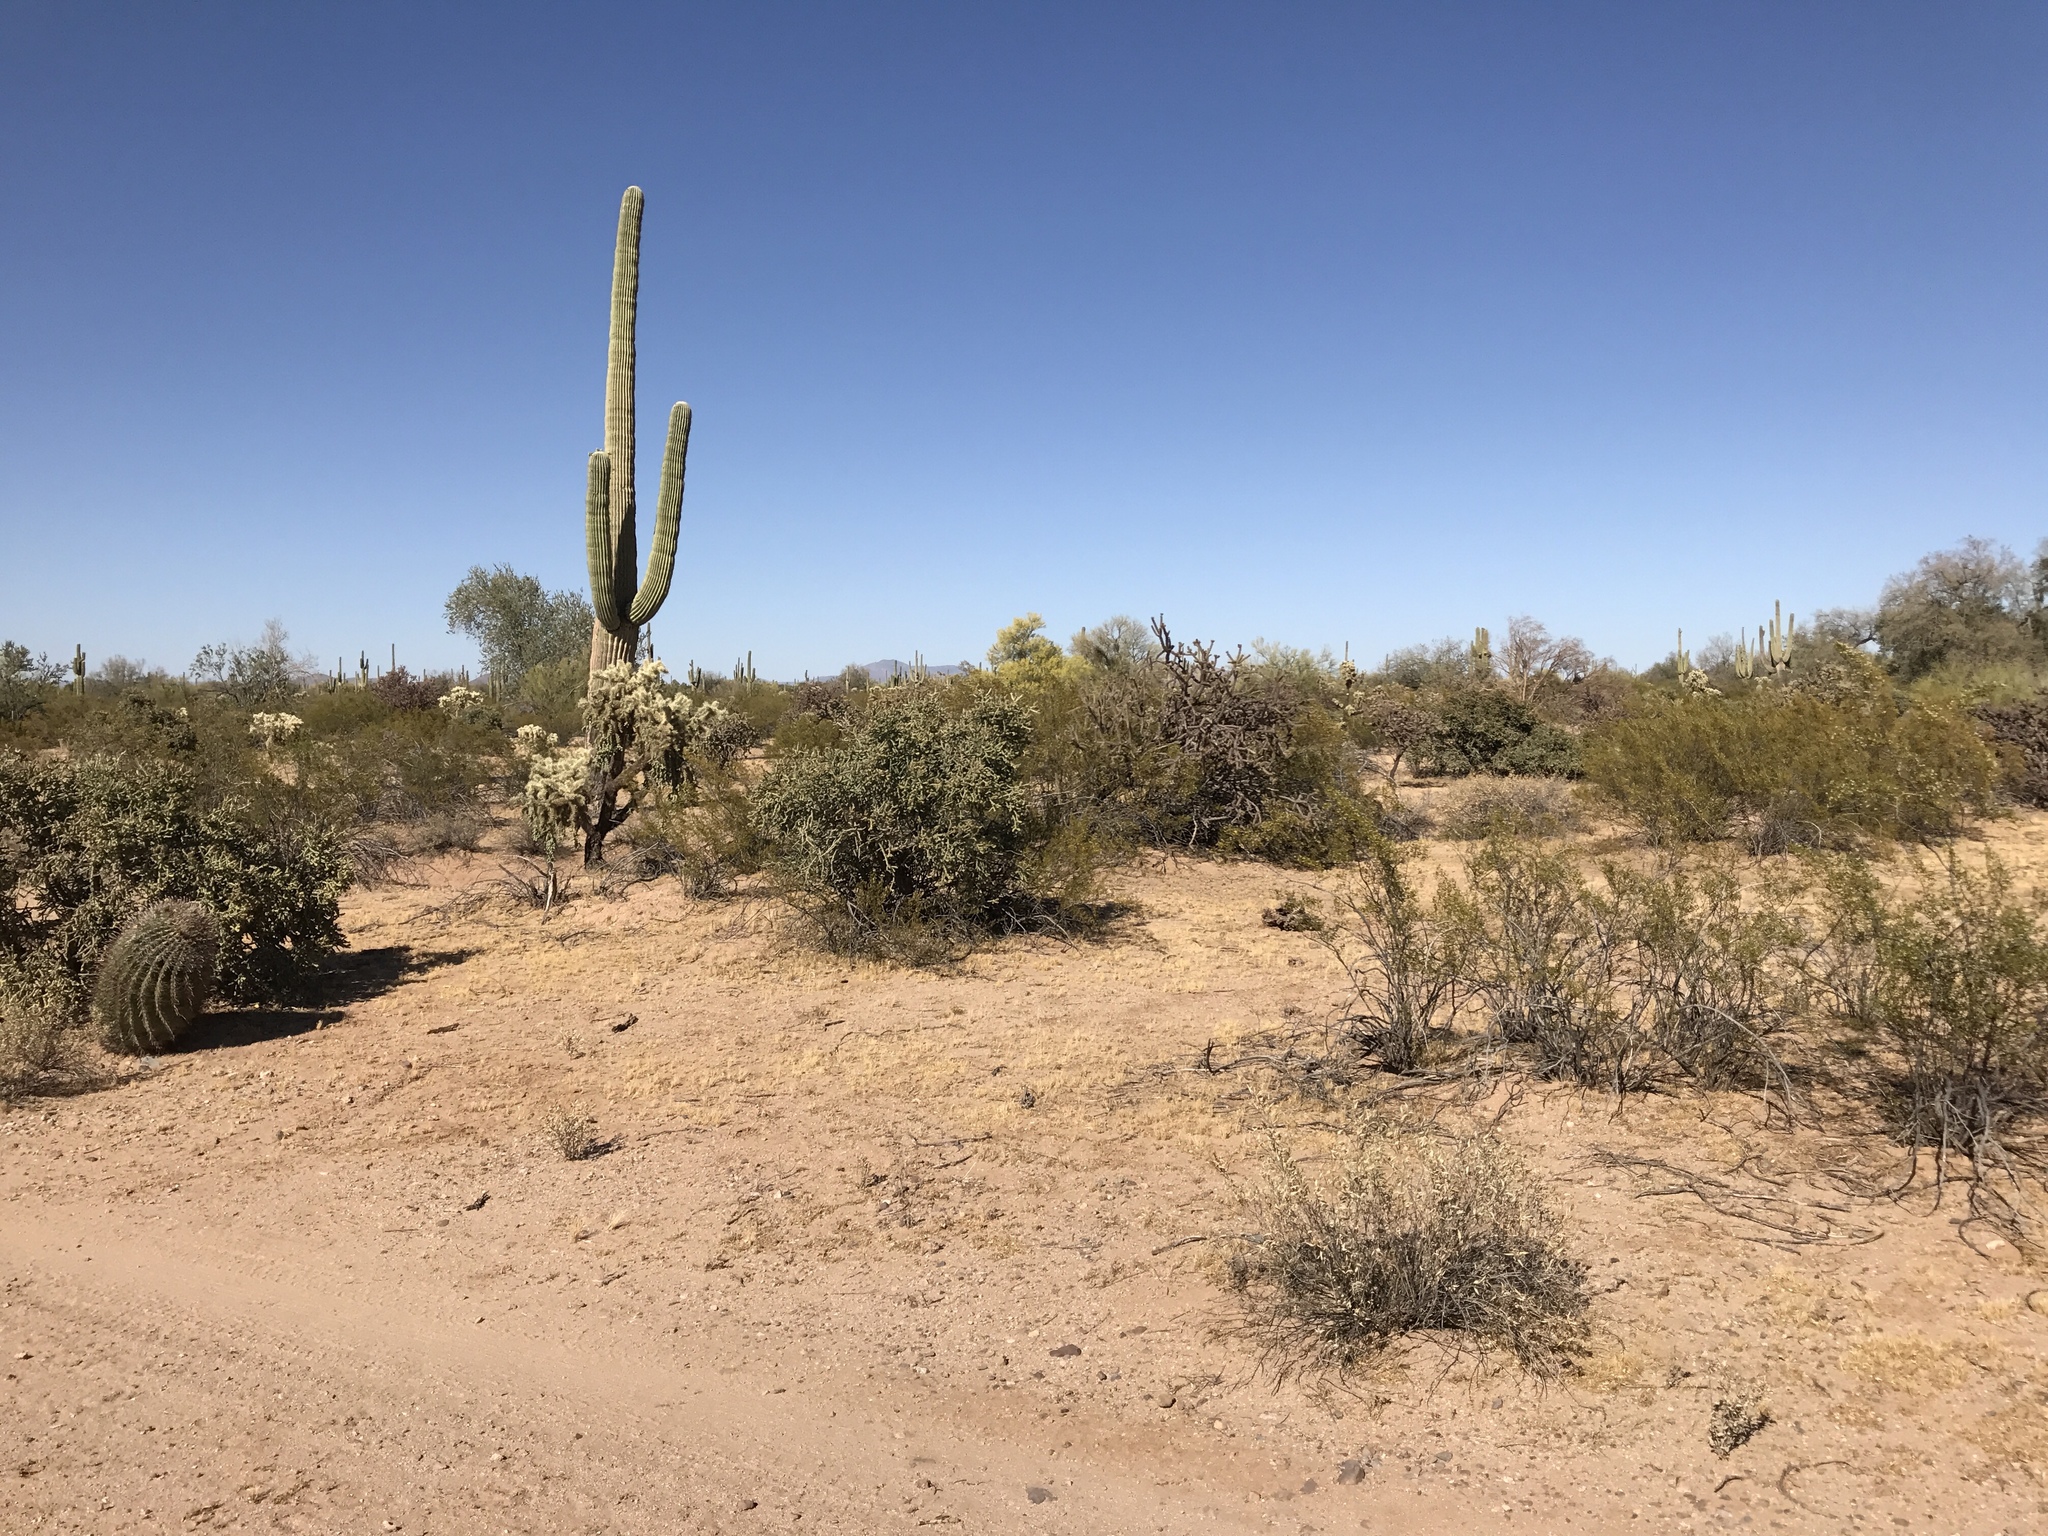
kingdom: Plantae
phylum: Tracheophyta
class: Magnoliopsida
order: Caryophyllales
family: Cactaceae
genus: Carnegiea
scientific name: Carnegiea gigantea
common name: Saguaro
